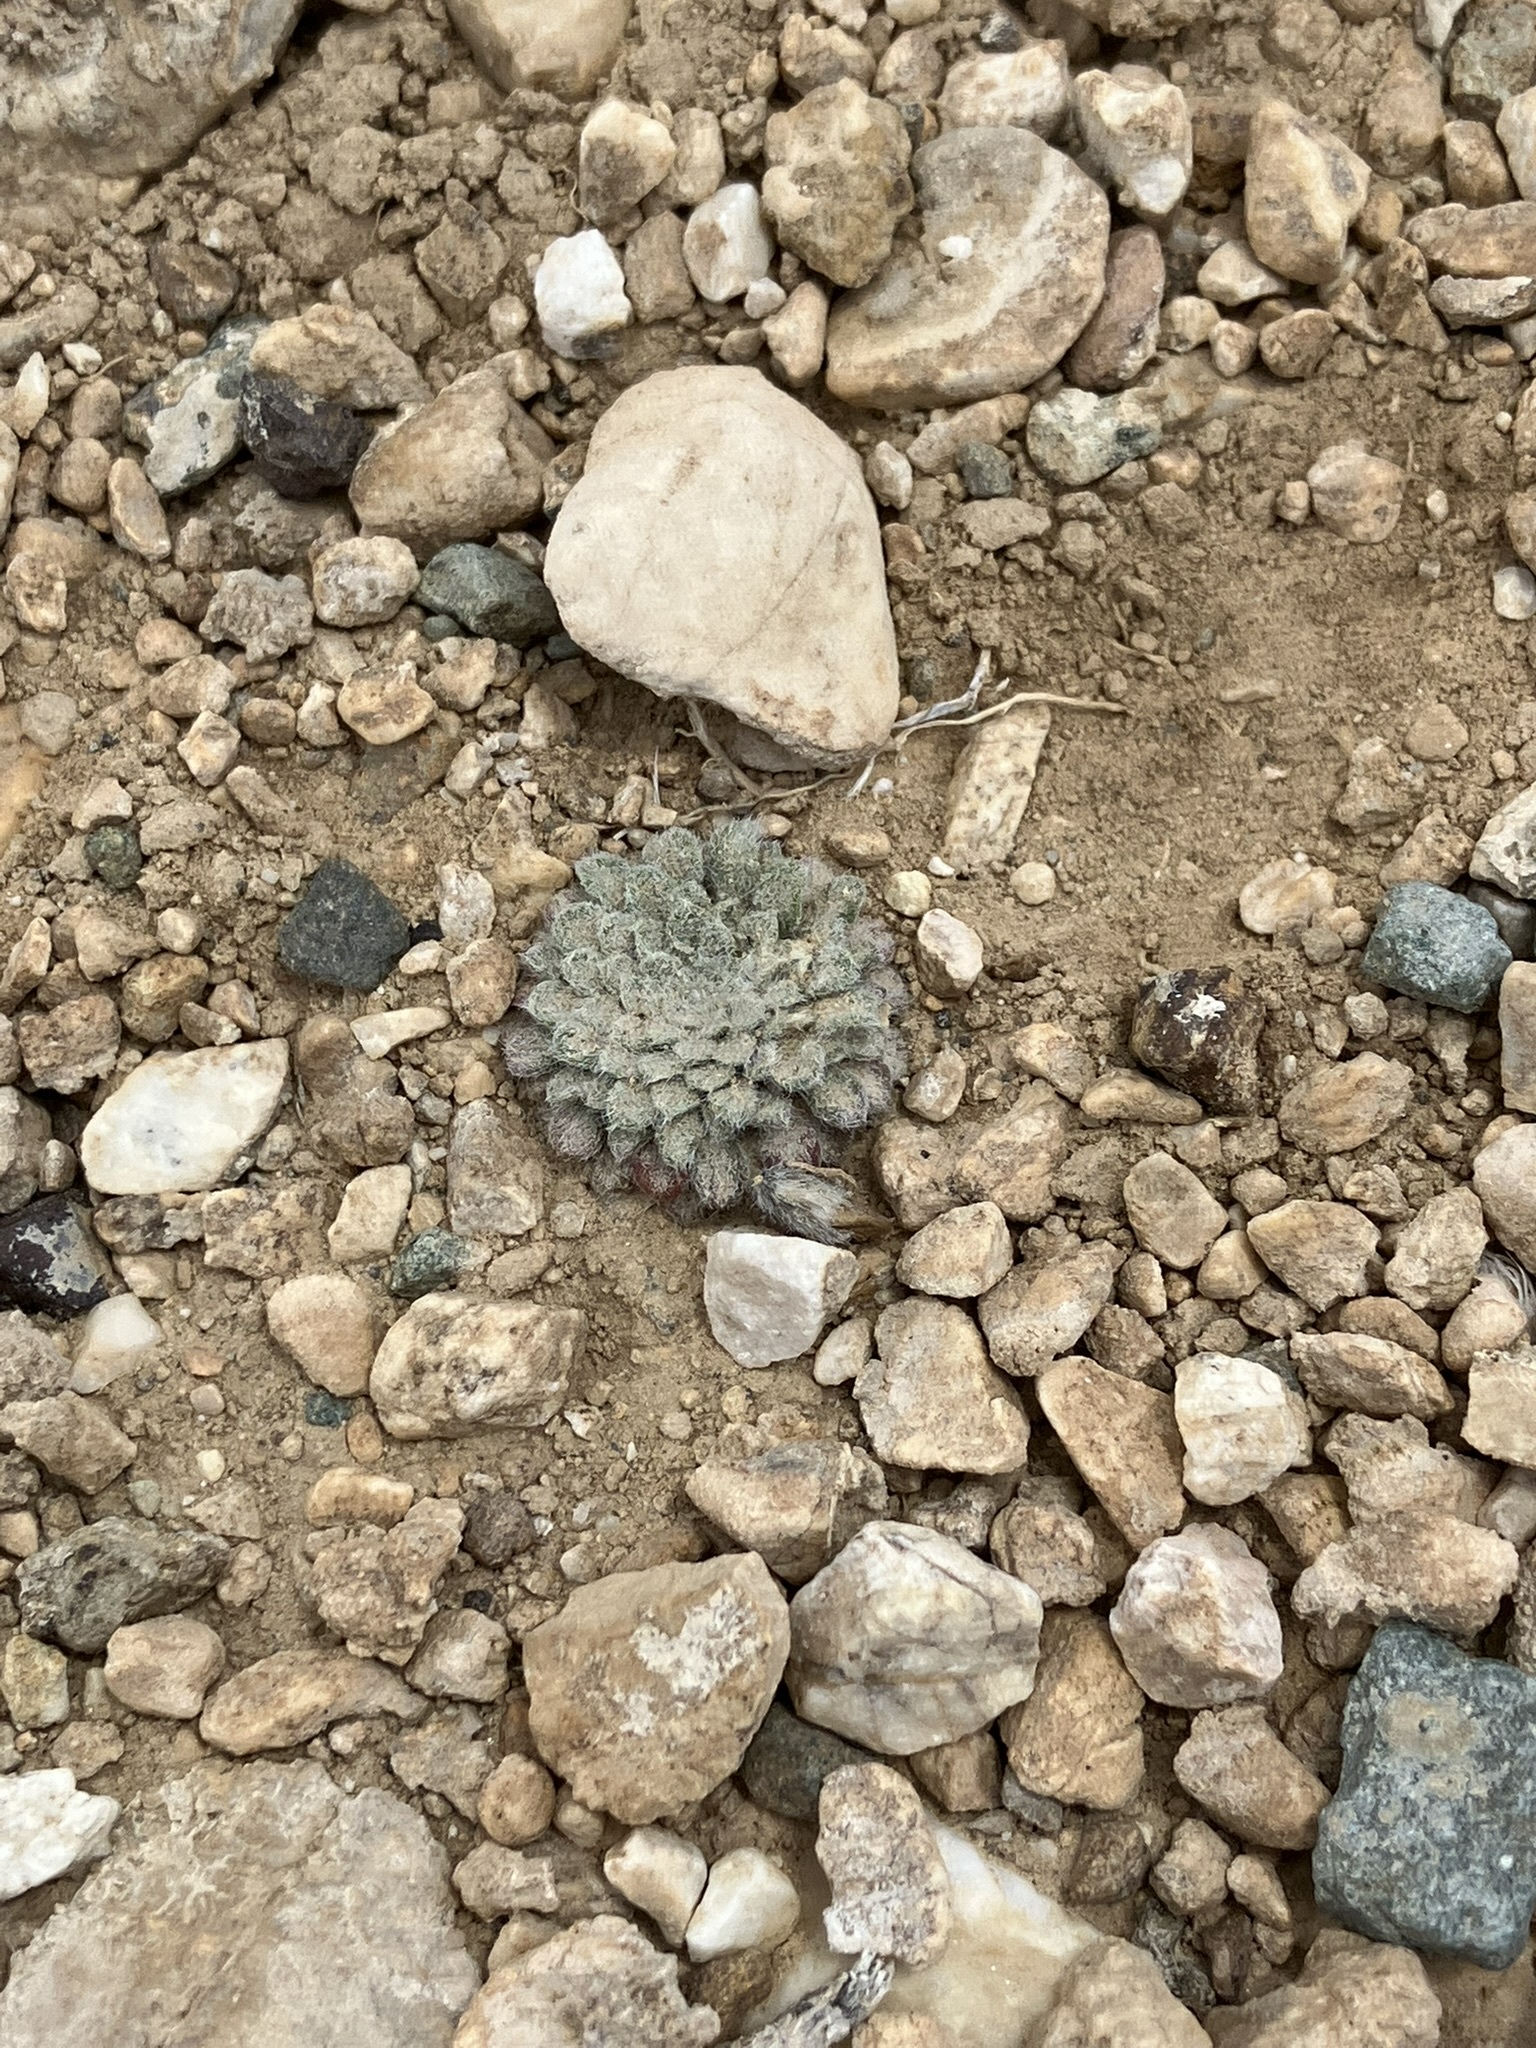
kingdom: Plantae
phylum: Tracheophyta
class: Magnoliopsida
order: Asterales
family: Asteraceae
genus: Townsendia
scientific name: Townsendia condensata
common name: Alpine townsend daisy
